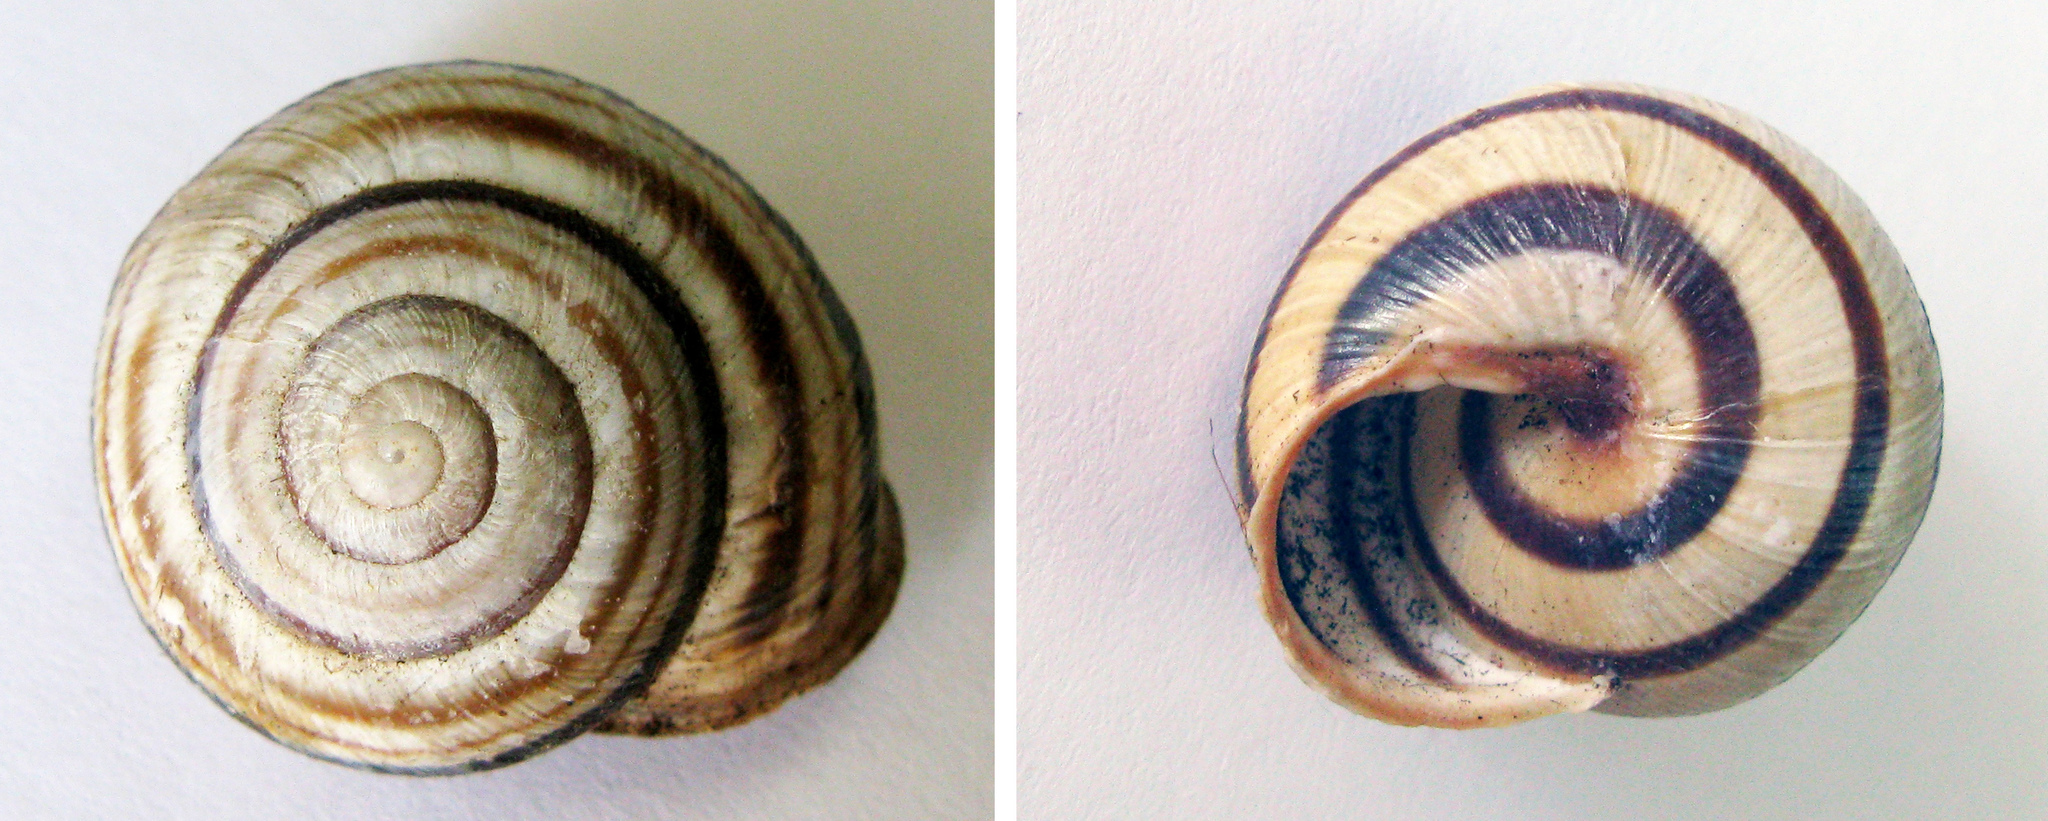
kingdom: Animalia
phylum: Mollusca
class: Gastropoda
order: Stylommatophora
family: Helicidae
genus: Caucasotachea
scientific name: Caucasotachea vindobonensis
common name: European helicid land snail
